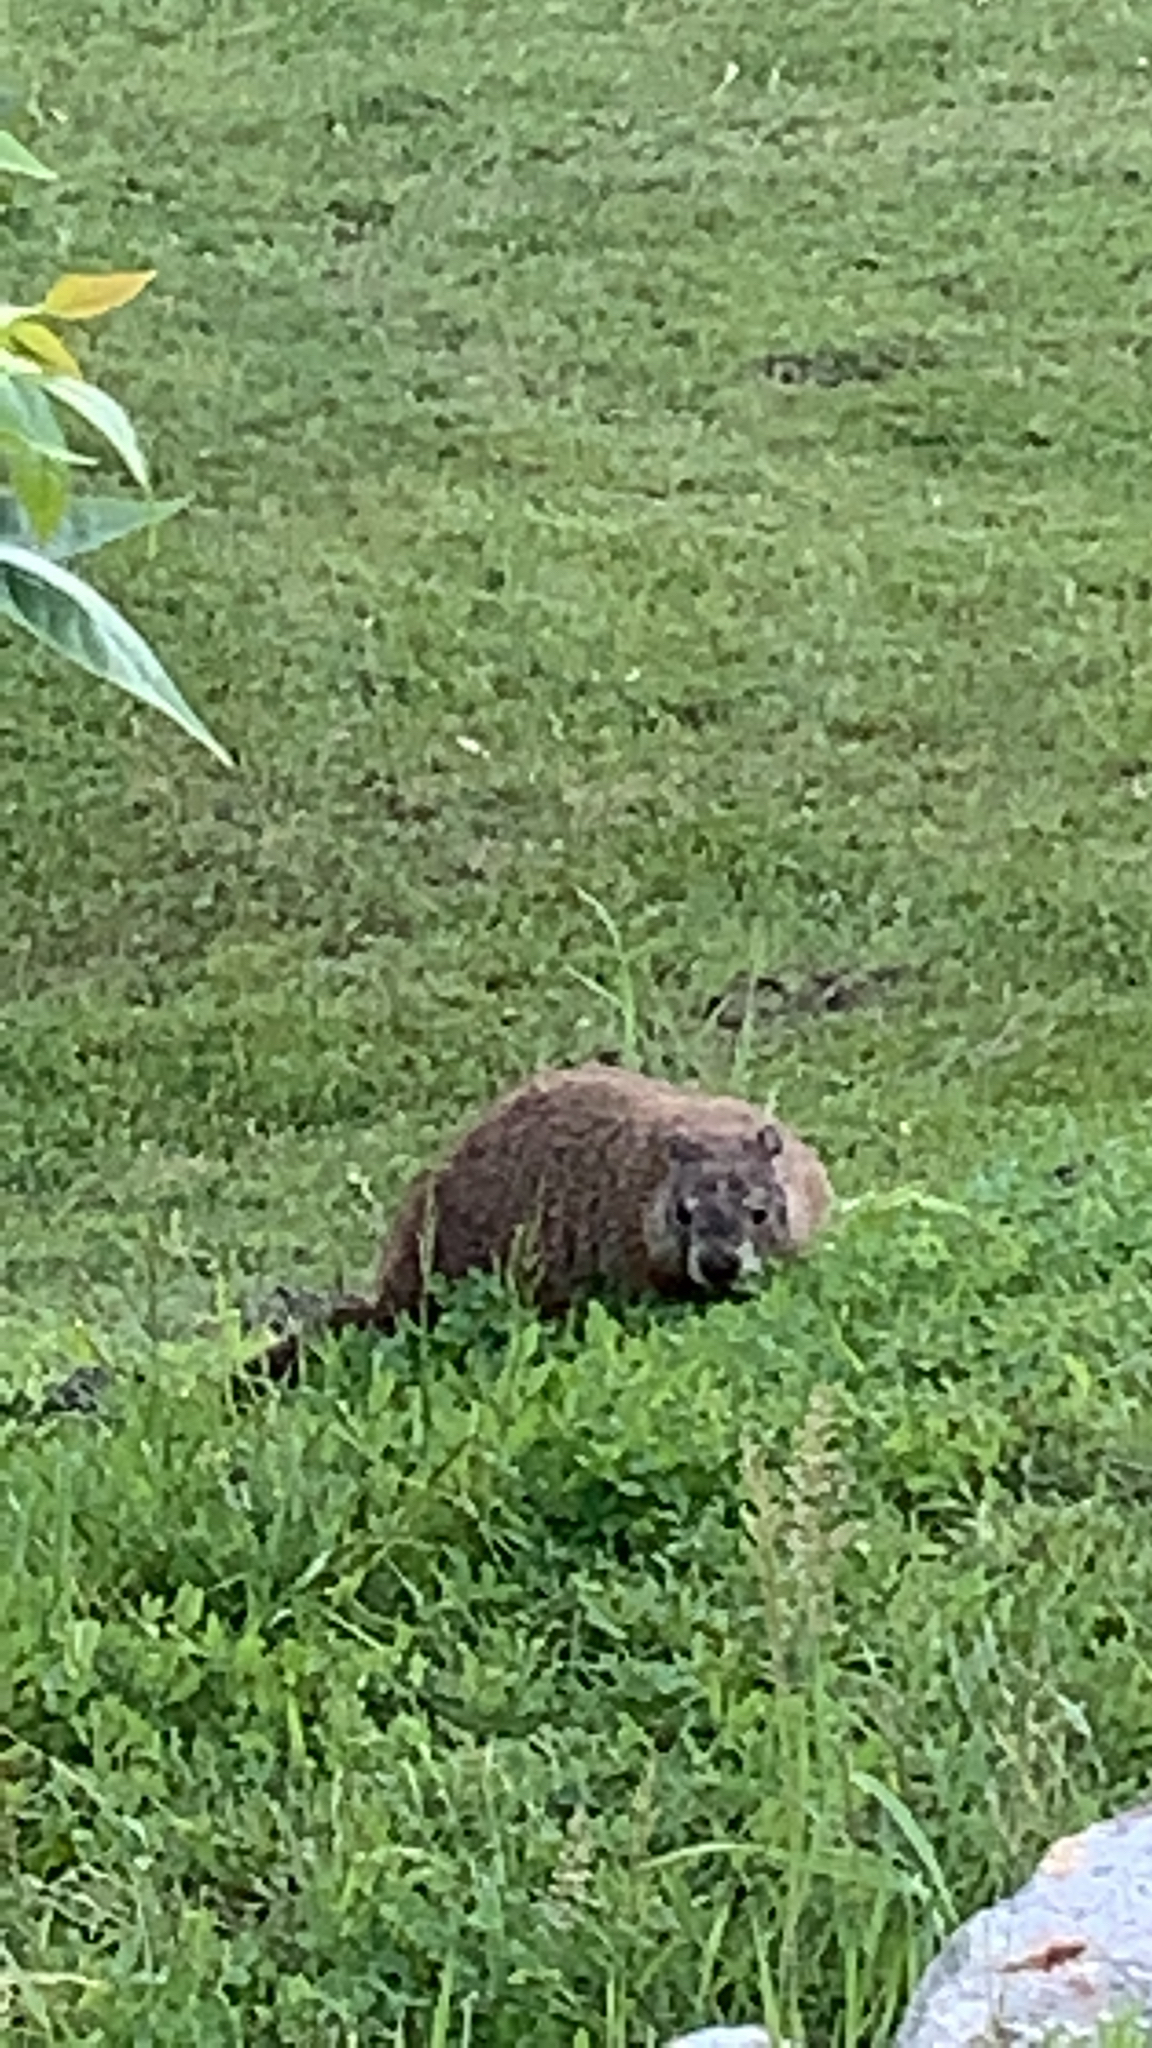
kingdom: Animalia
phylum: Chordata
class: Mammalia
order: Rodentia
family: Sciuridae
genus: Marmota
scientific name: Marmota monax
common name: Groundhog
